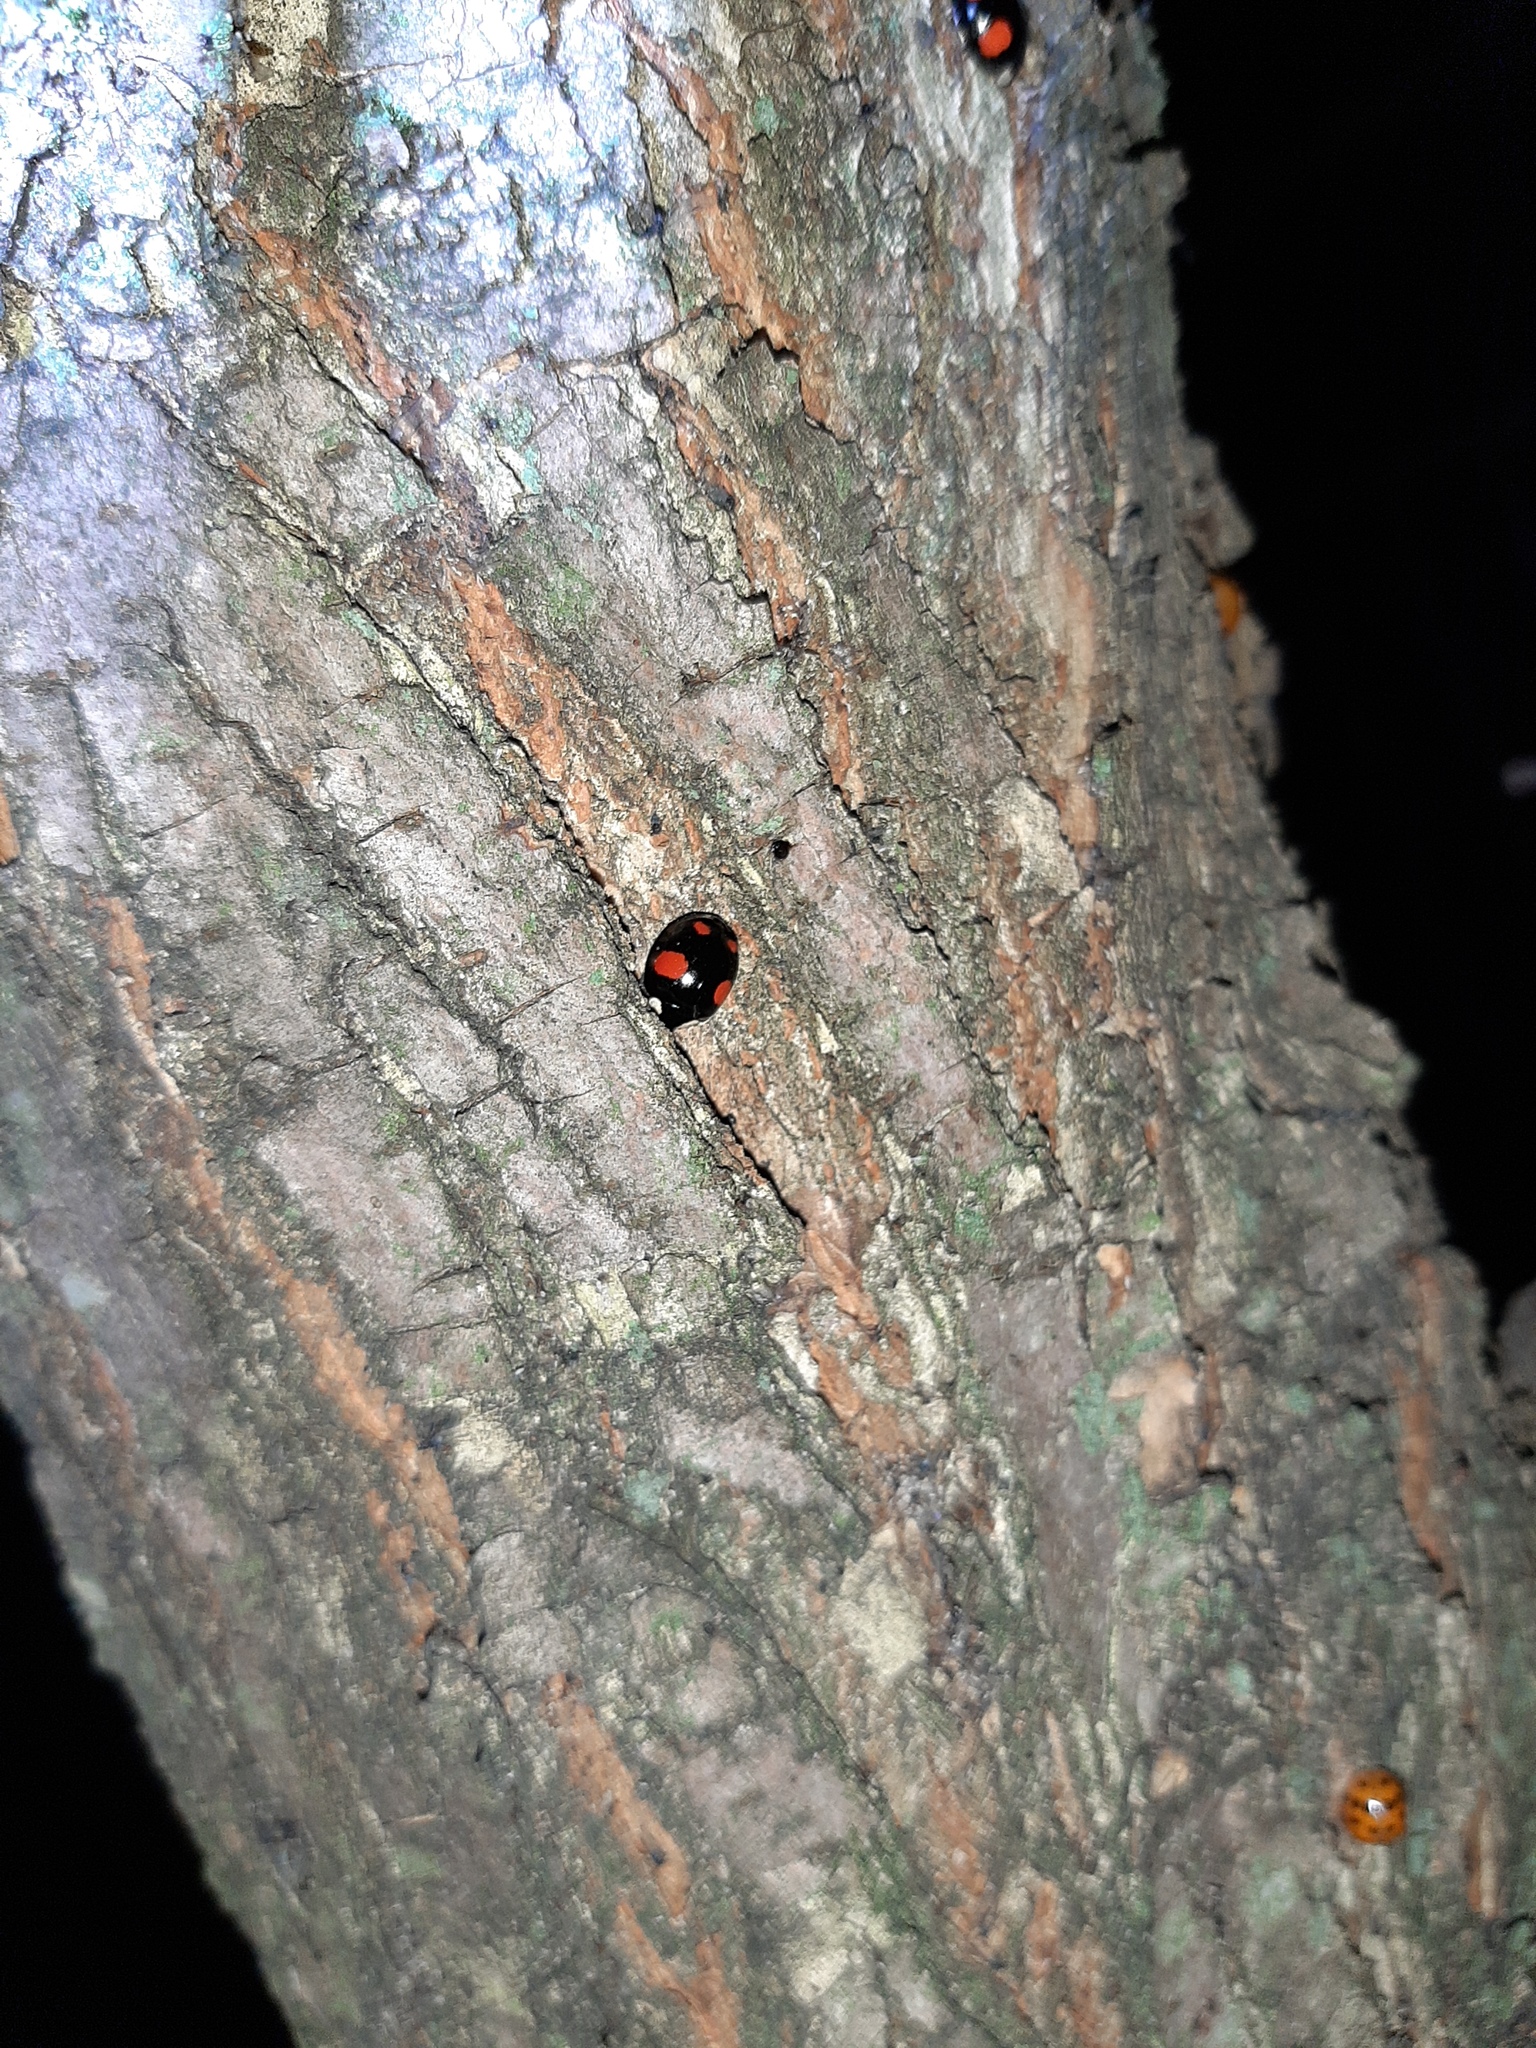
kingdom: Animalia
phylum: Arthropoda
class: Insecta
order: Coleoptera
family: Coccinellidae
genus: Harmonia
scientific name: Harmonia axyridis
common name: Harlequin ladybird
